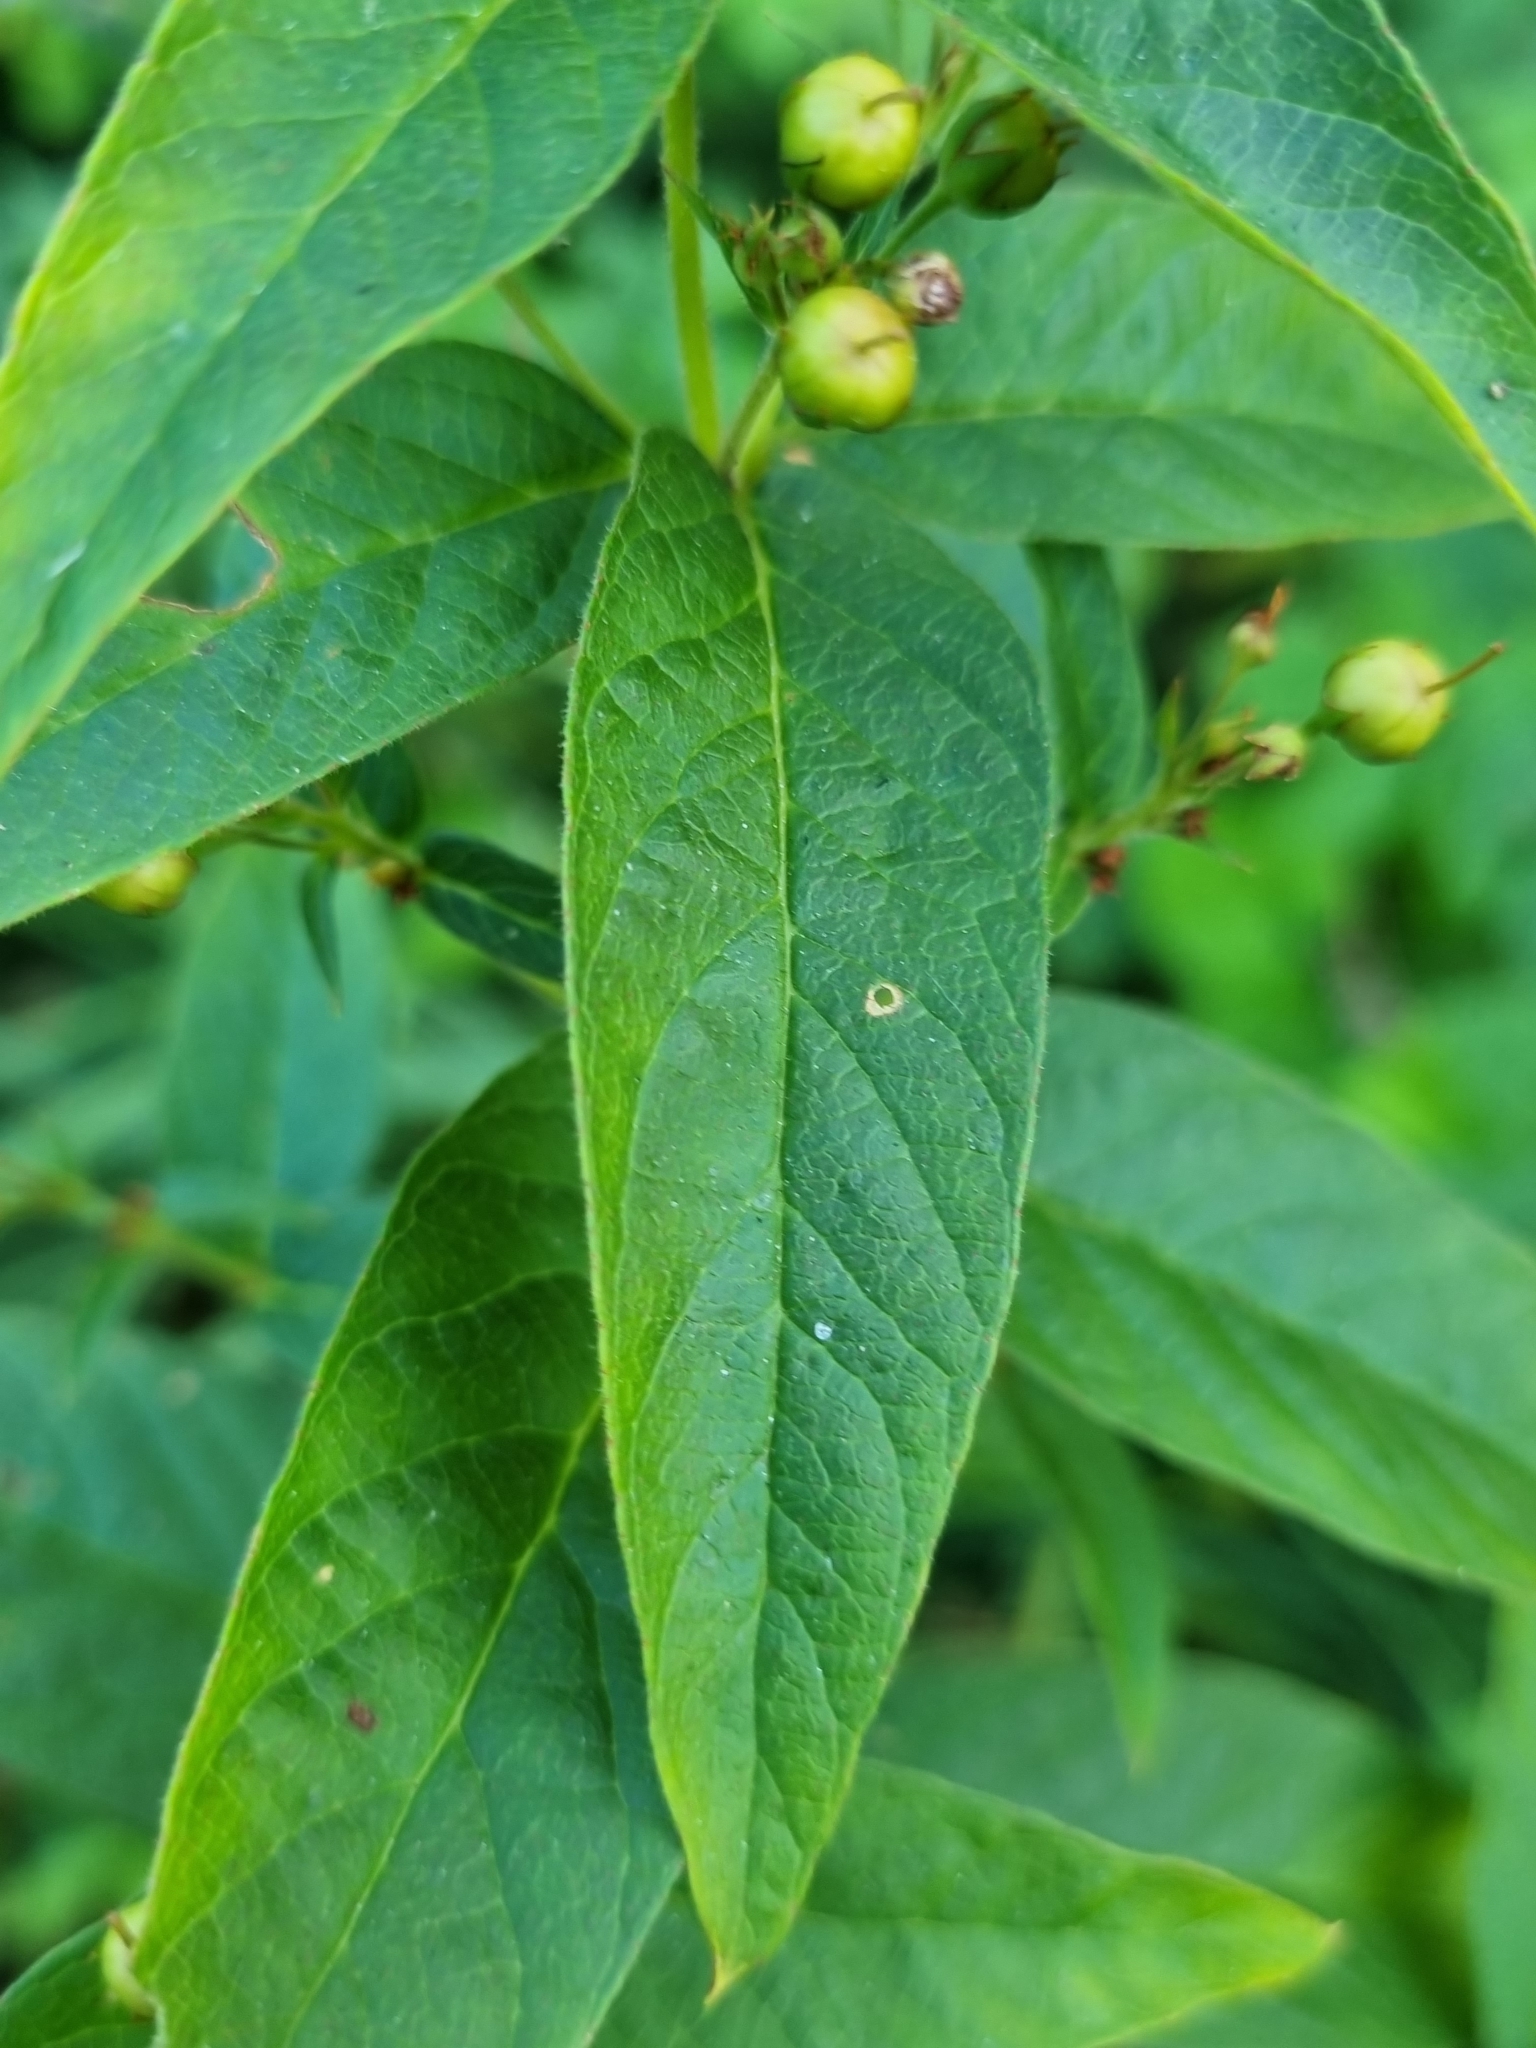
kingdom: Plantae
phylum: Tracheophyta
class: Magnoliopsida
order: Ericales
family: Primulaceae
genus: Lysimachia
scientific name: Lysimachia vulgaris
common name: Yellow loosestrife
